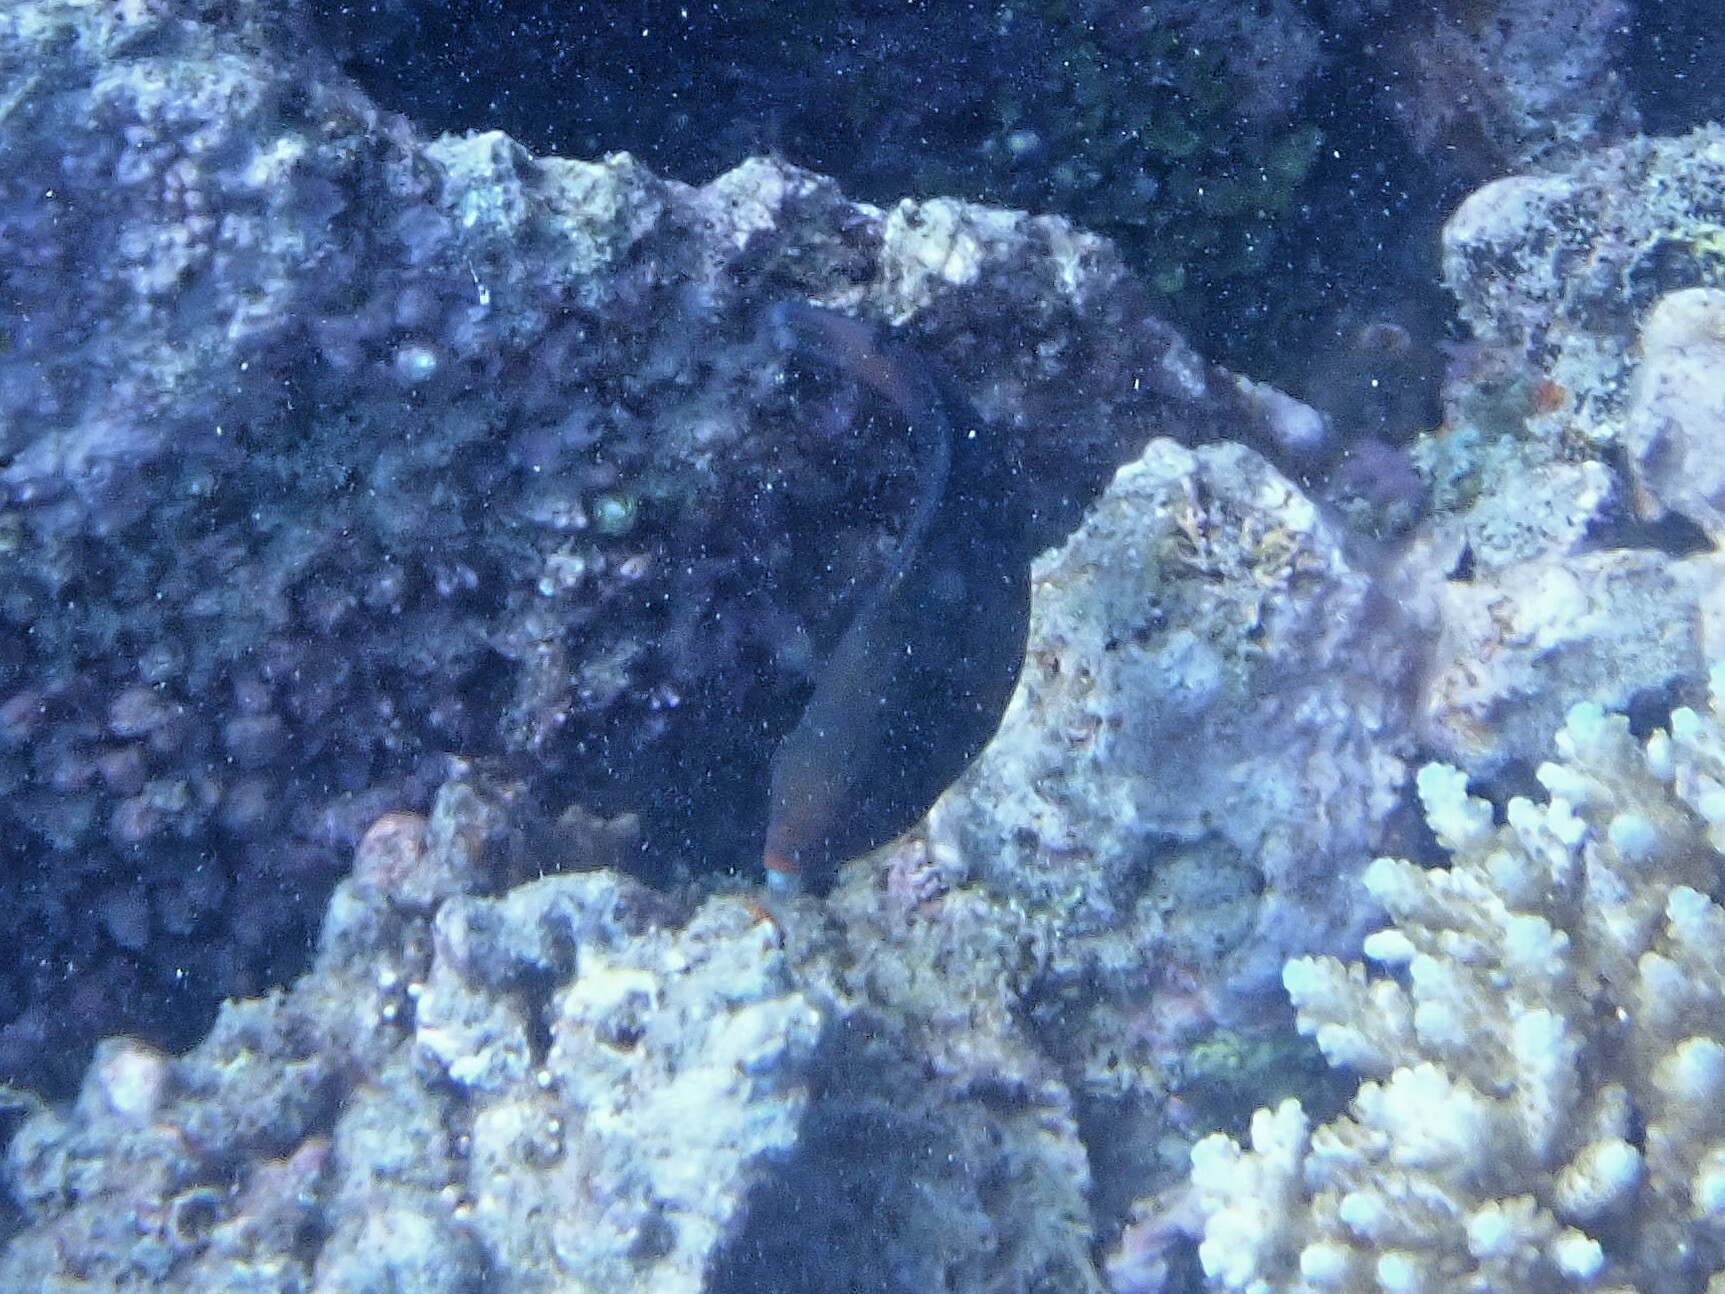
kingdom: Animalia
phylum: Chordata
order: Perciformes
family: Scaridae
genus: Scarus
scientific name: Scarus niger
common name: Dusky parrotfish
